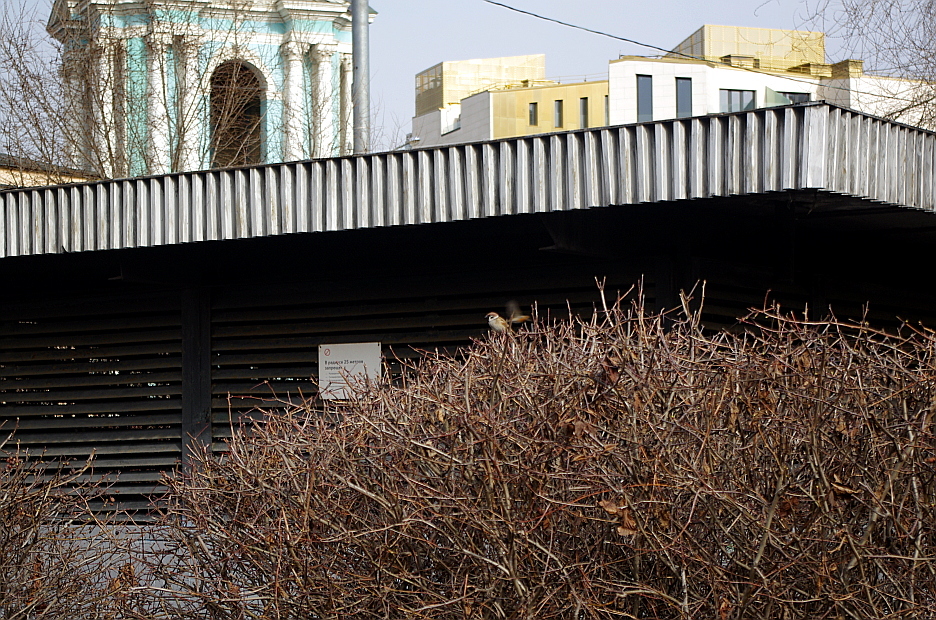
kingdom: Animalia
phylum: Chordata
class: Aves
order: Passeriformes
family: Passeridae
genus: Passer
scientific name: Passer montanus
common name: Eurasian tree sparrow
